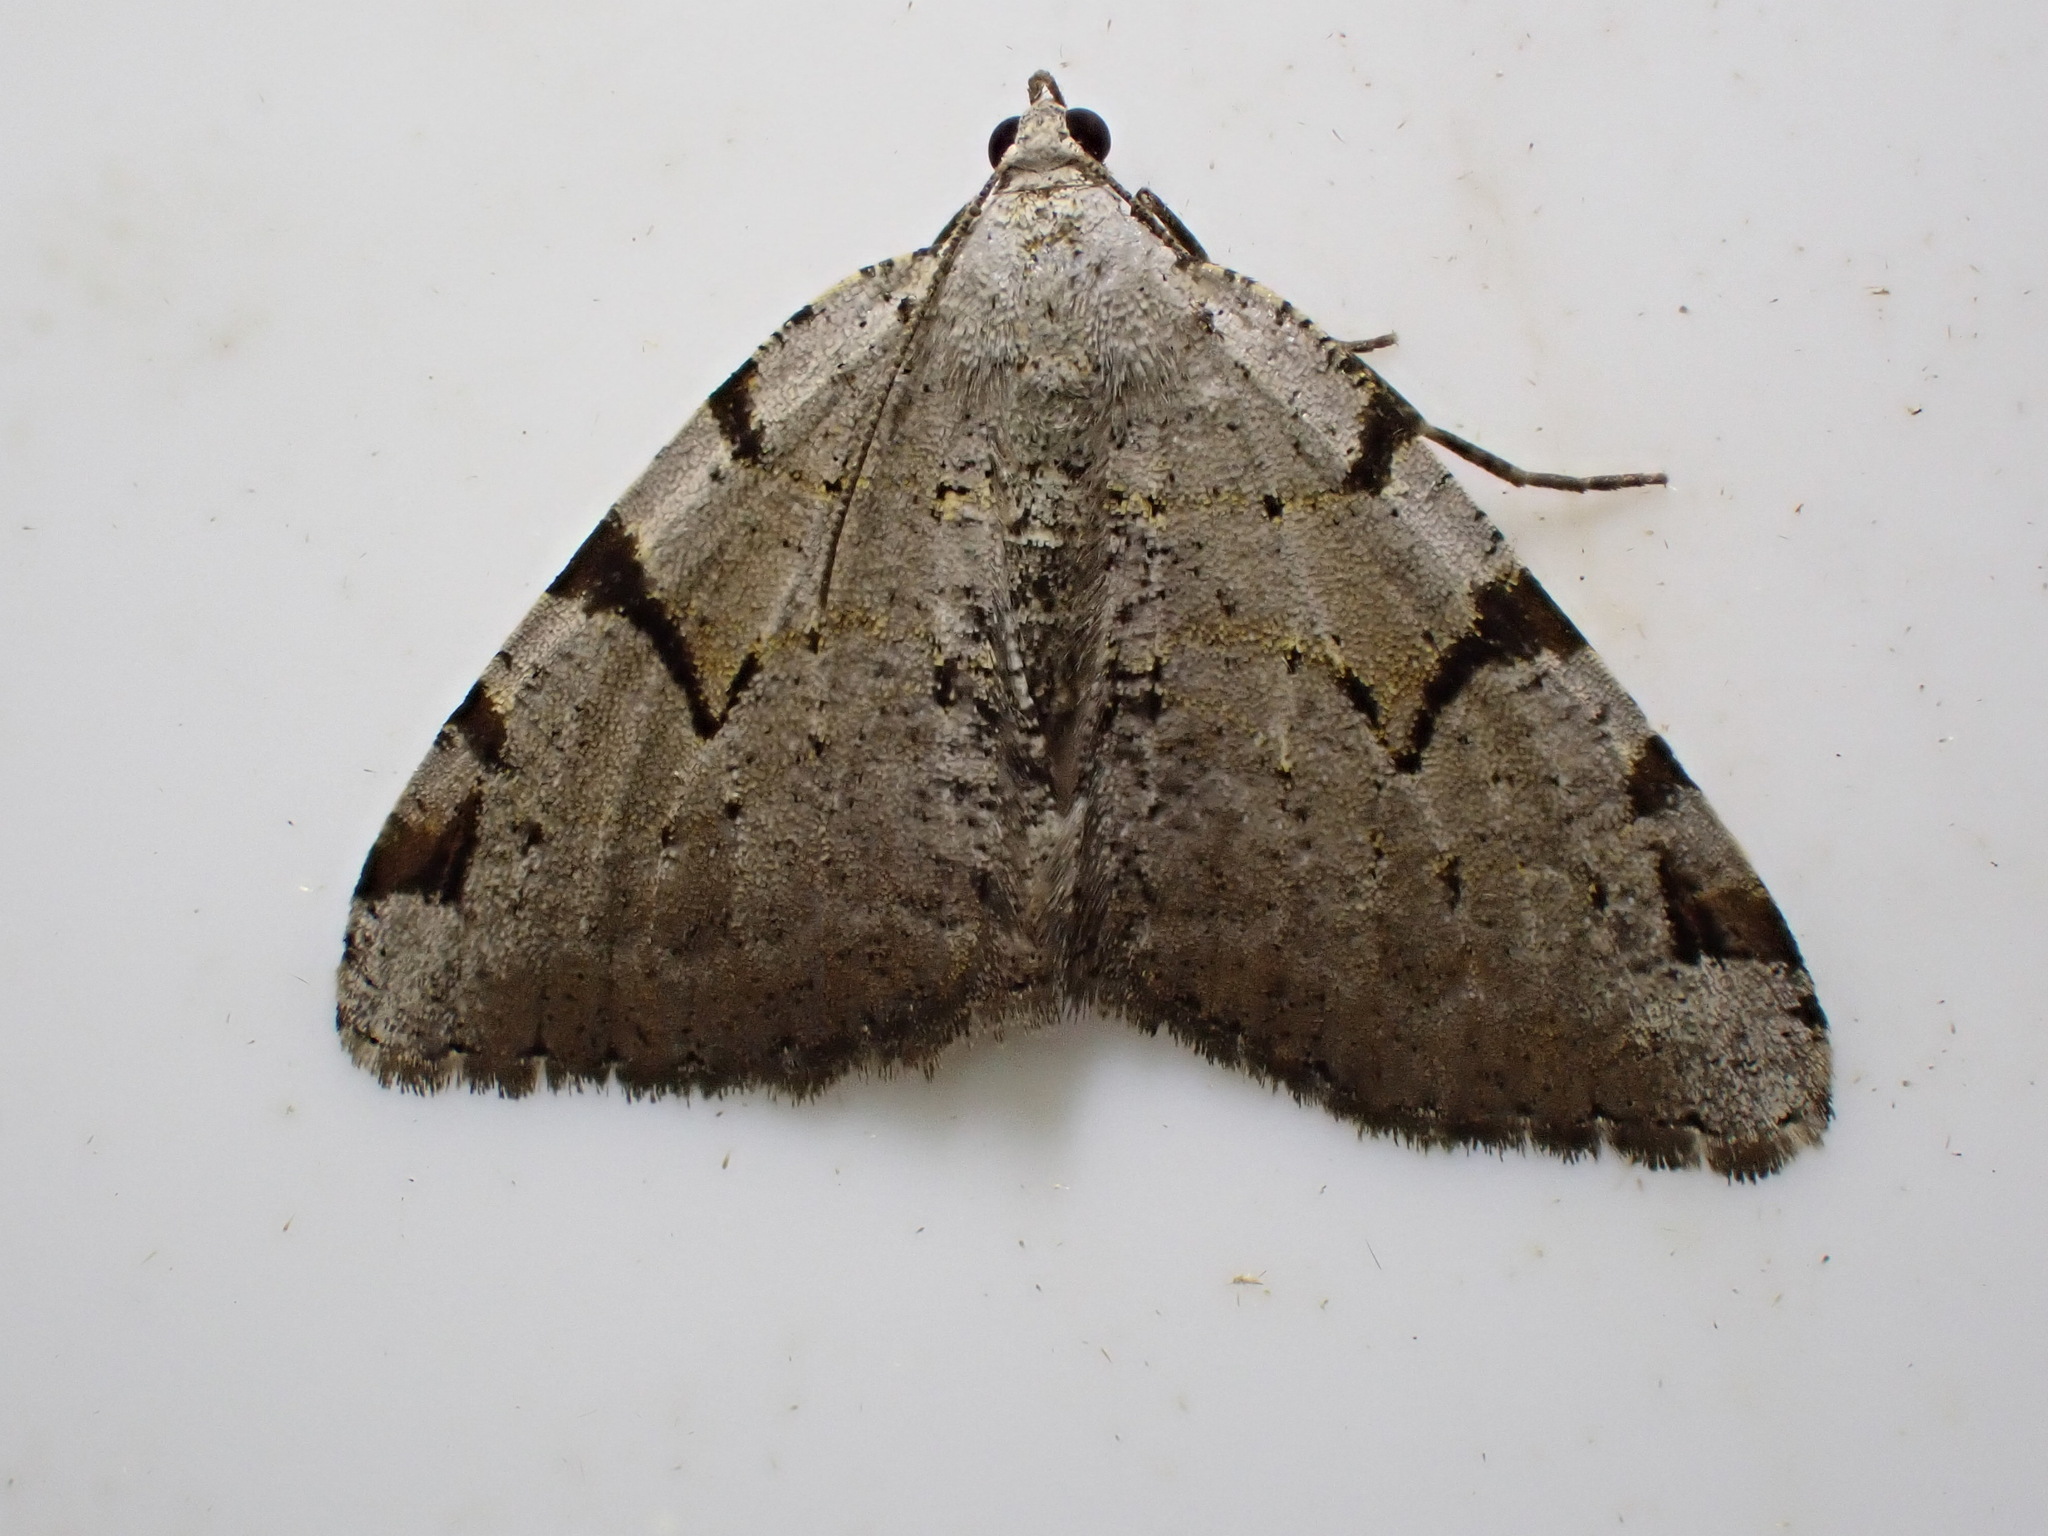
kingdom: Animalia
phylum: Arthropoda
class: Insecta
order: Lepidoptera
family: Geometridae
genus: Macaria
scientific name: Macaria wauaria
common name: V-moth
